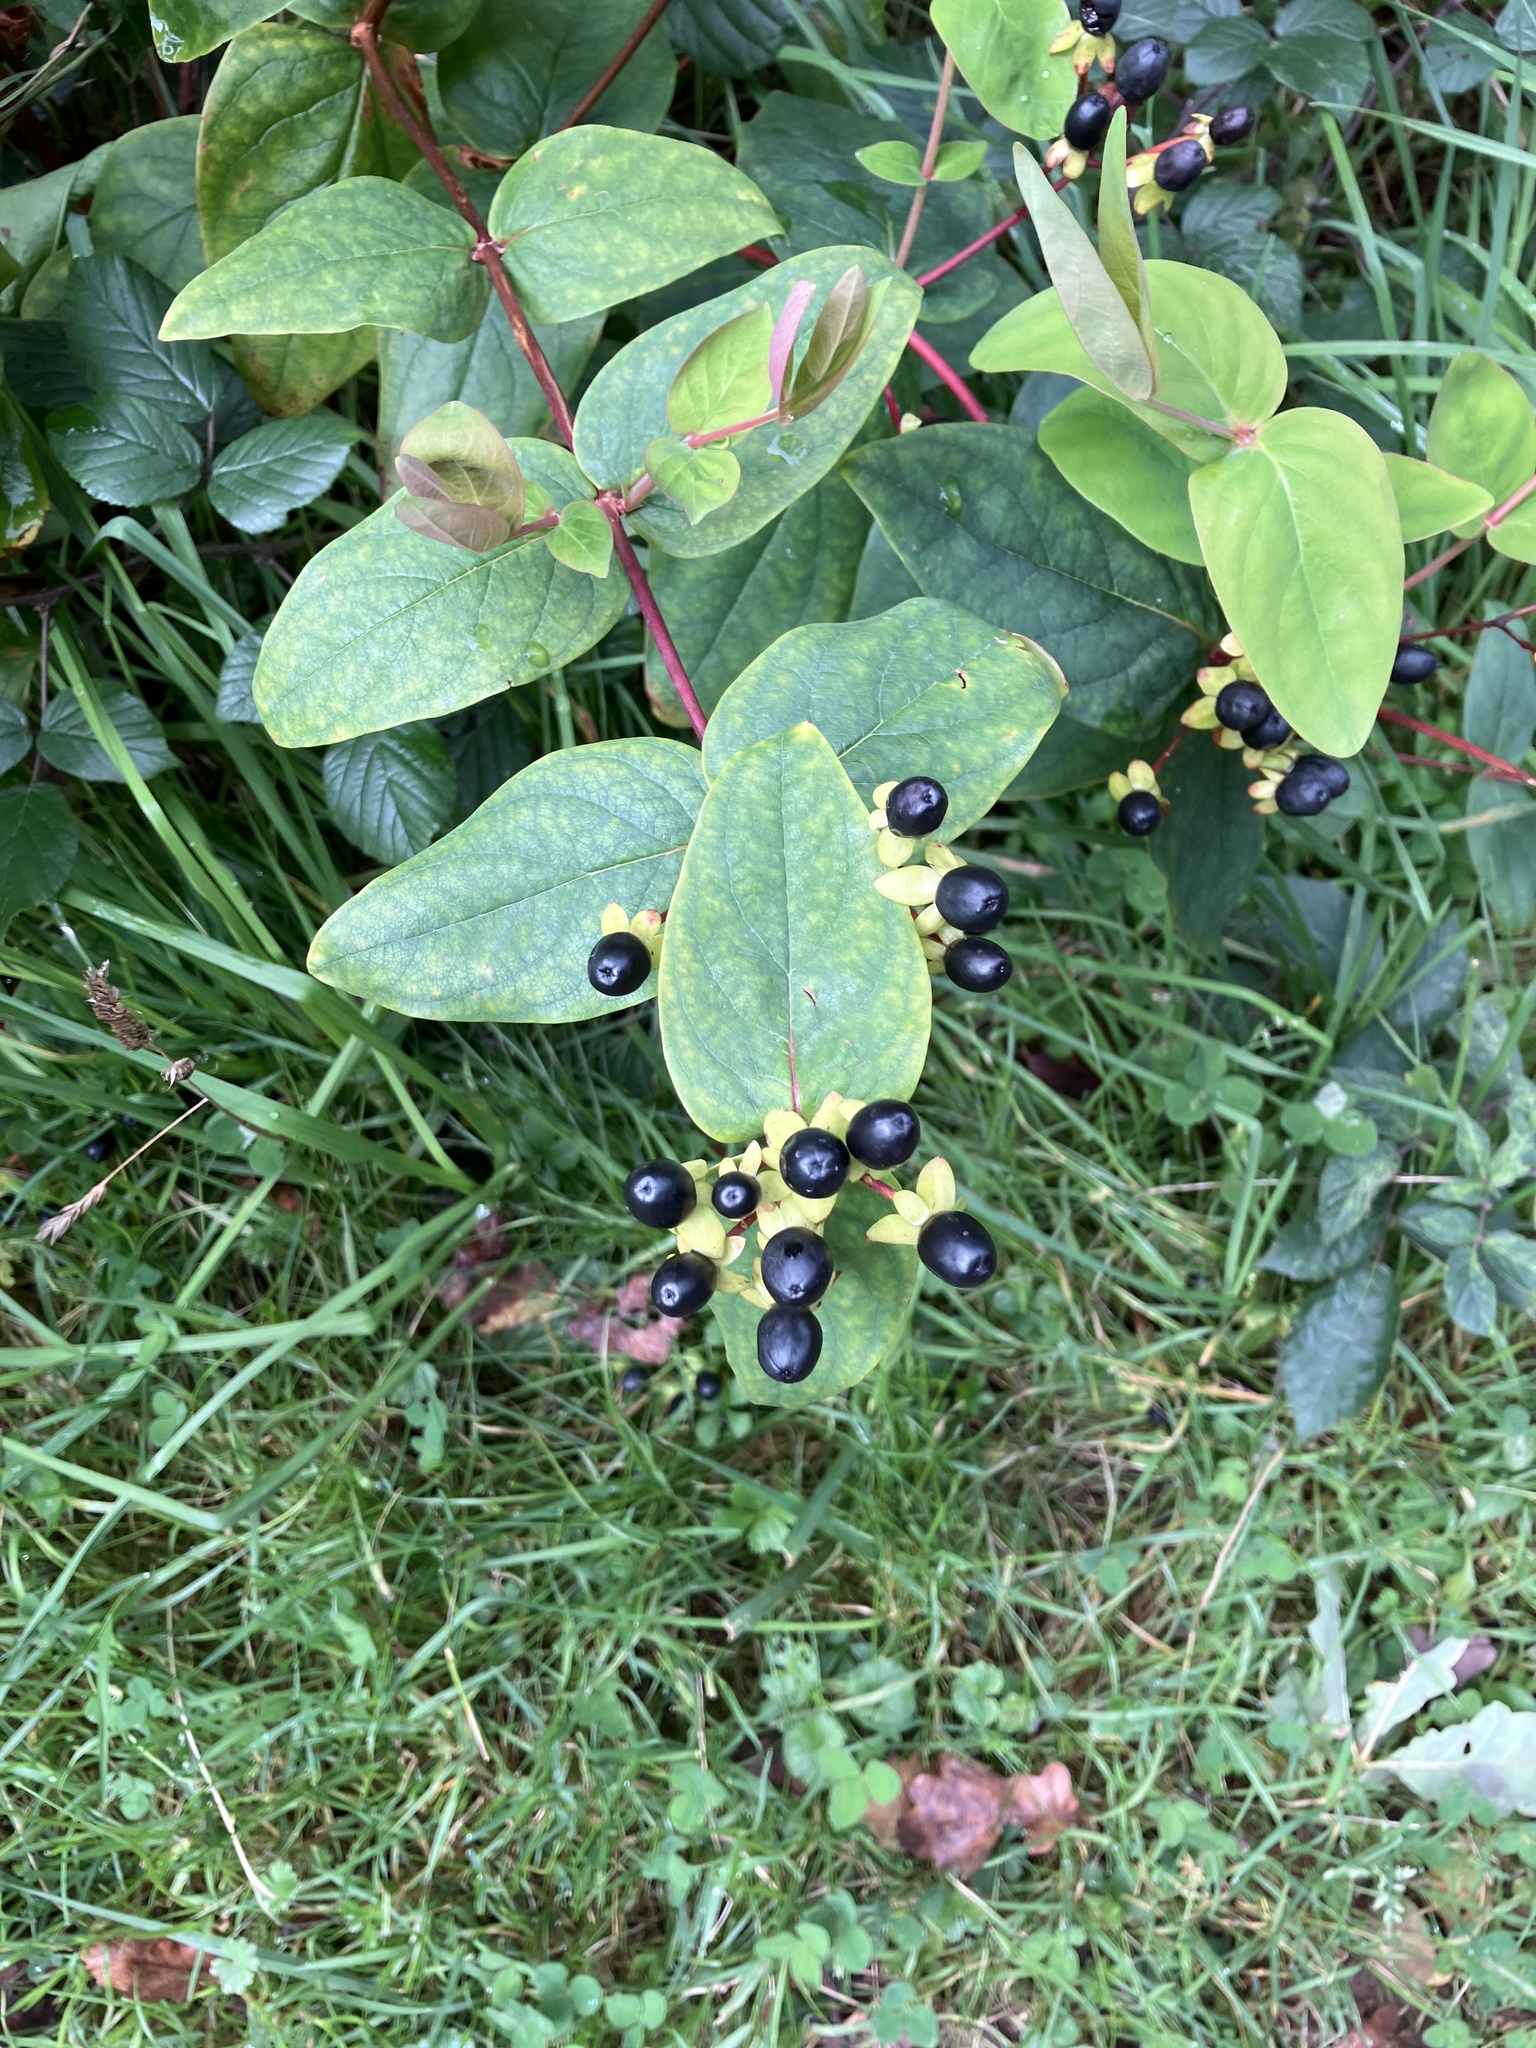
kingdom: Plantae
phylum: Tracheophyta
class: Magnoliopsida
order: Malpighiales
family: Hypericaceae
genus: Hypericum
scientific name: Hypericum androsaemum
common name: Sweet-amber
